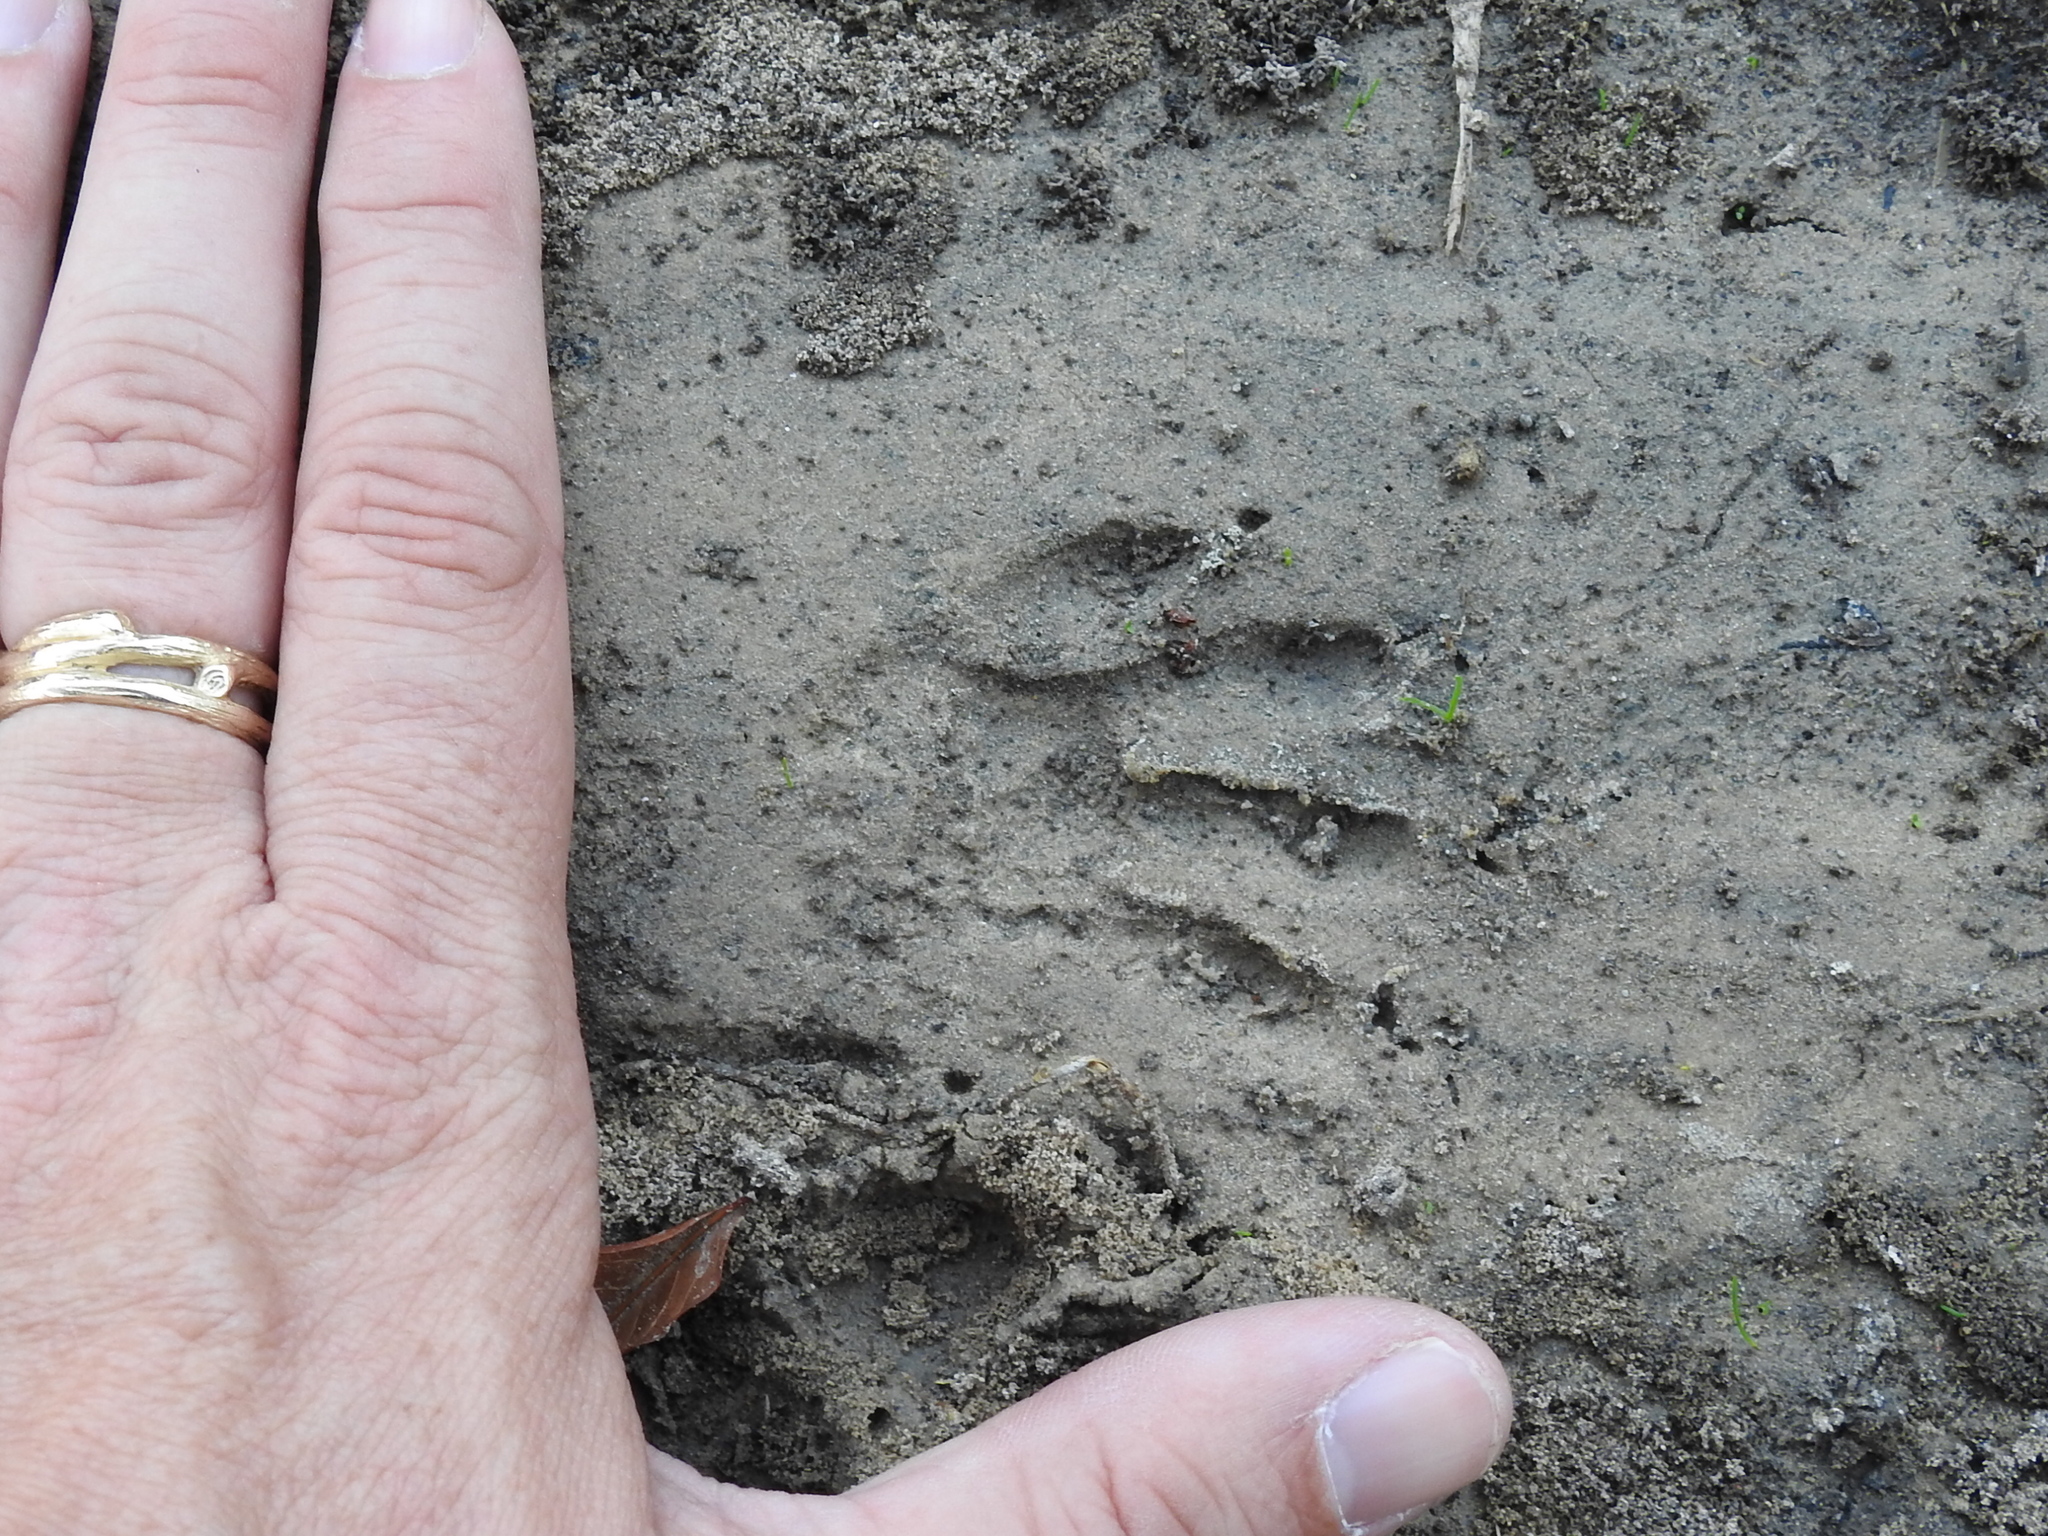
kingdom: Animalia
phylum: Chordata
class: Mammalia
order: Carnivora
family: Procyonidae
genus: Procyon
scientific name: Procyon lotor
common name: Raccoon
